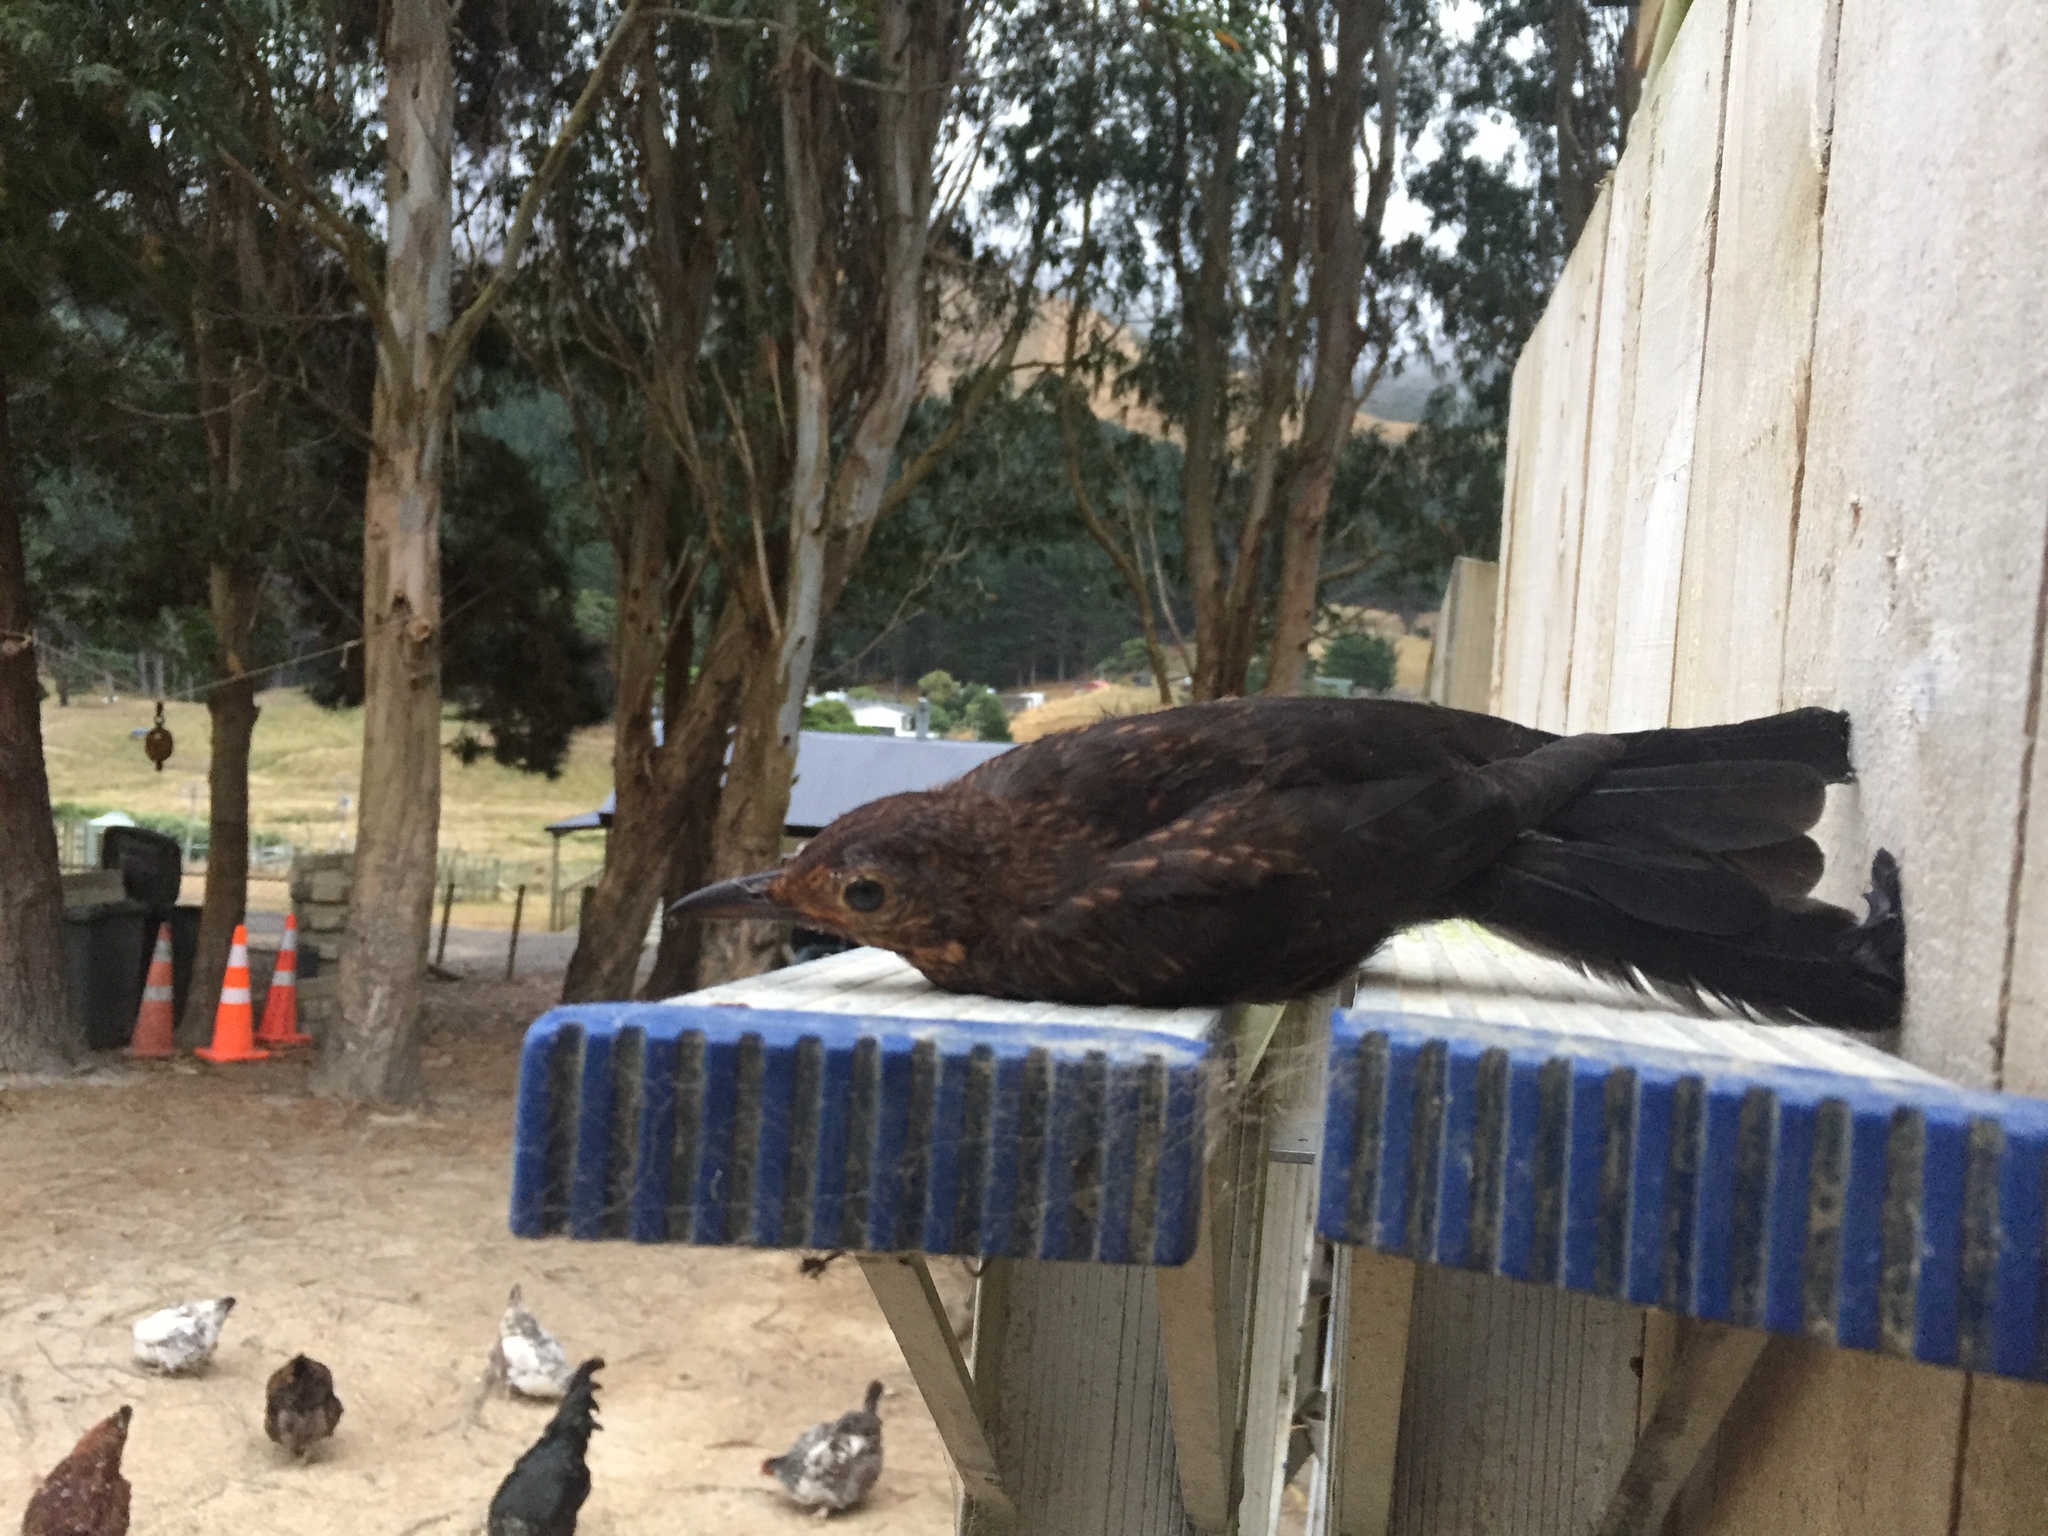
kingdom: Animalia
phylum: Chordata
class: Aves
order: Passeriformes
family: Turdidae
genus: Turdus
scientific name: Turdus merula
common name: Common blackbird
